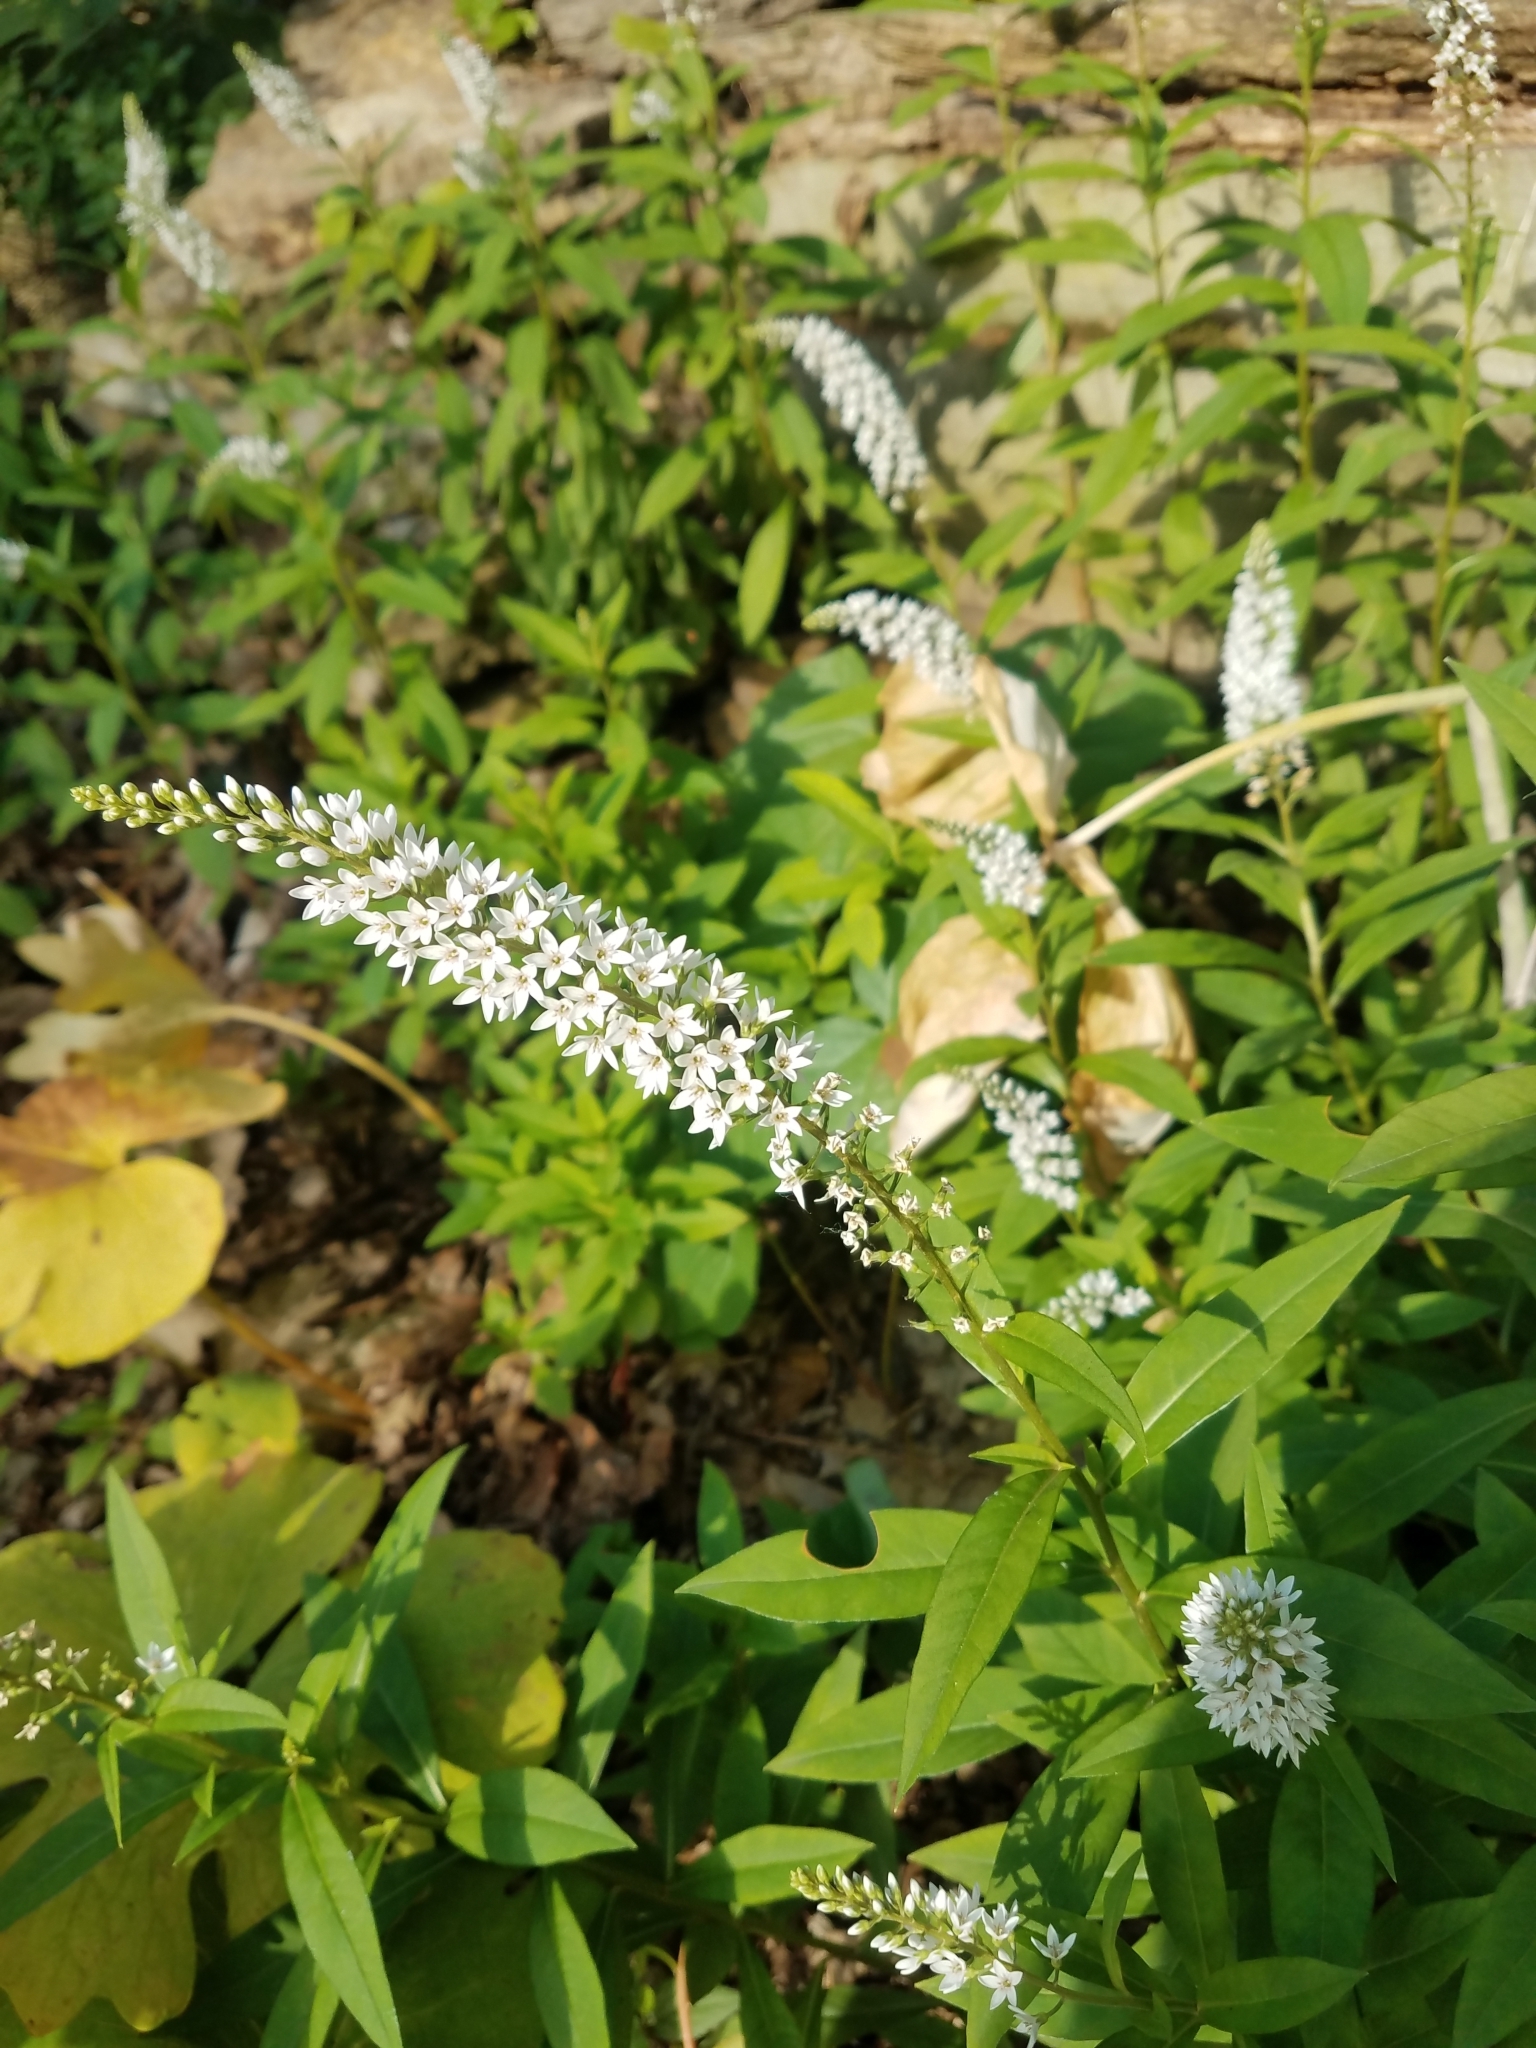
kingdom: Plantae
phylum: Tracheophyta
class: Magnoliopsida
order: Ericales
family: Primulaceae
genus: Lysimachia
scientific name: Lysimachia clethroides
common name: Gooseneck loosestrife
